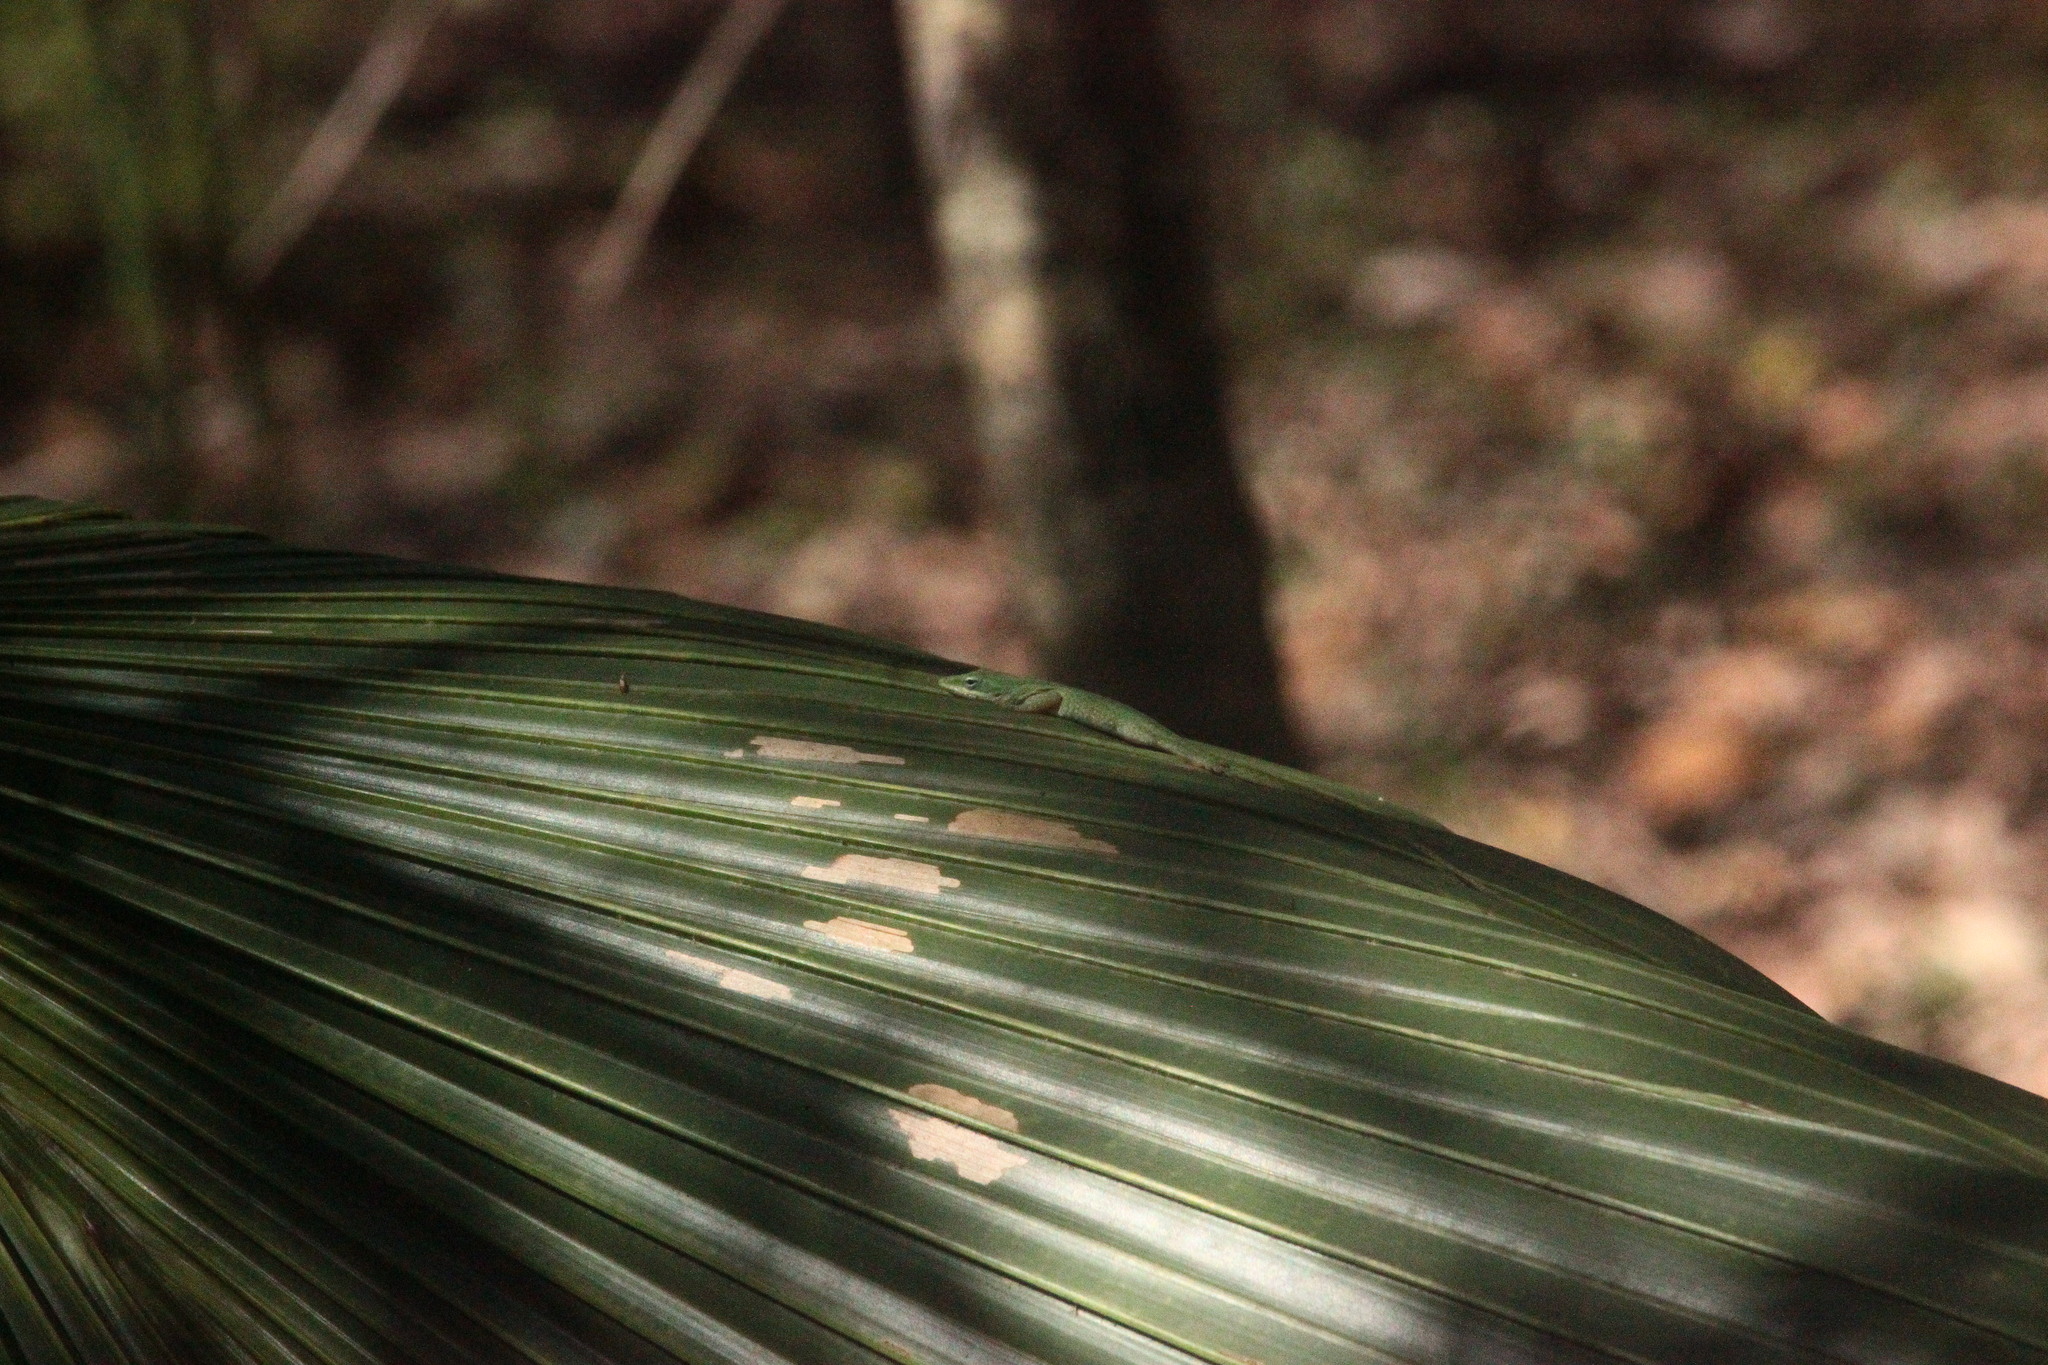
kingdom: Animalia
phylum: Chordata
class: Squamata
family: Dactyloidae
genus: Anolis
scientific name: Anolis carolinensis
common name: Green anole
